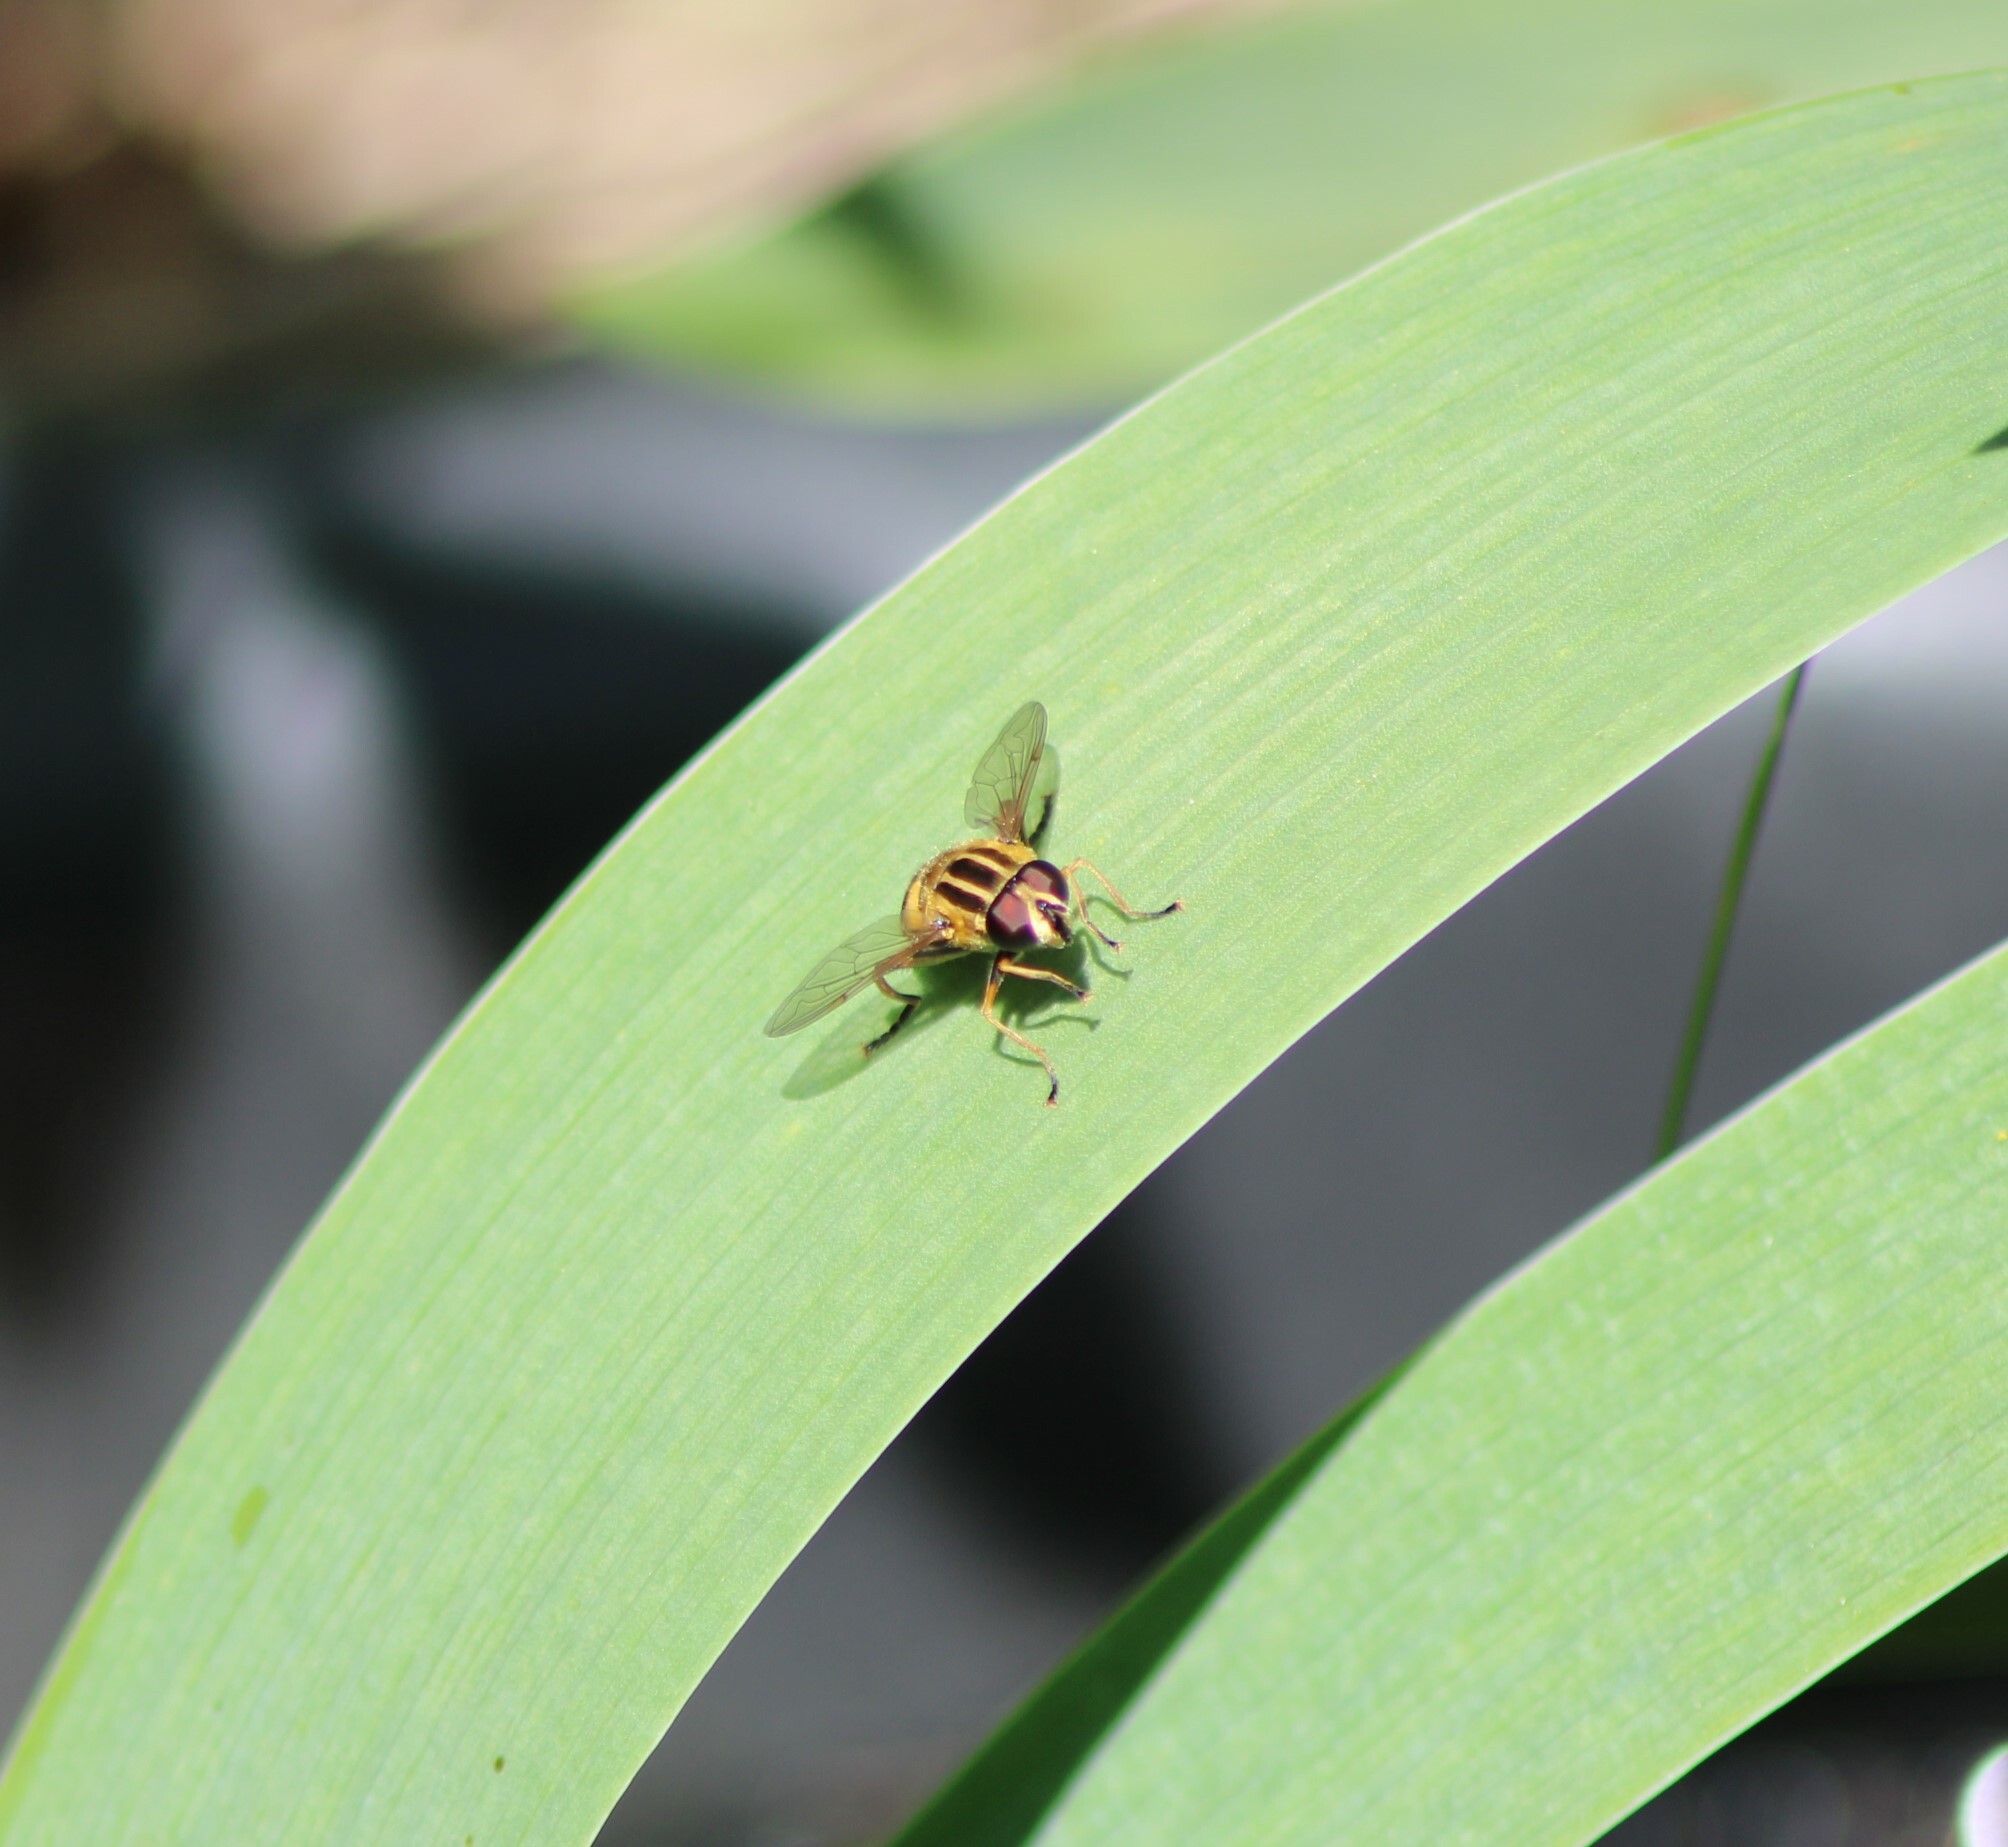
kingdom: Animalia
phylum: Arthropoda
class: Insecta
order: Diptera
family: Syrphidae
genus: Helophilus
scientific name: Helophilus pendulus
